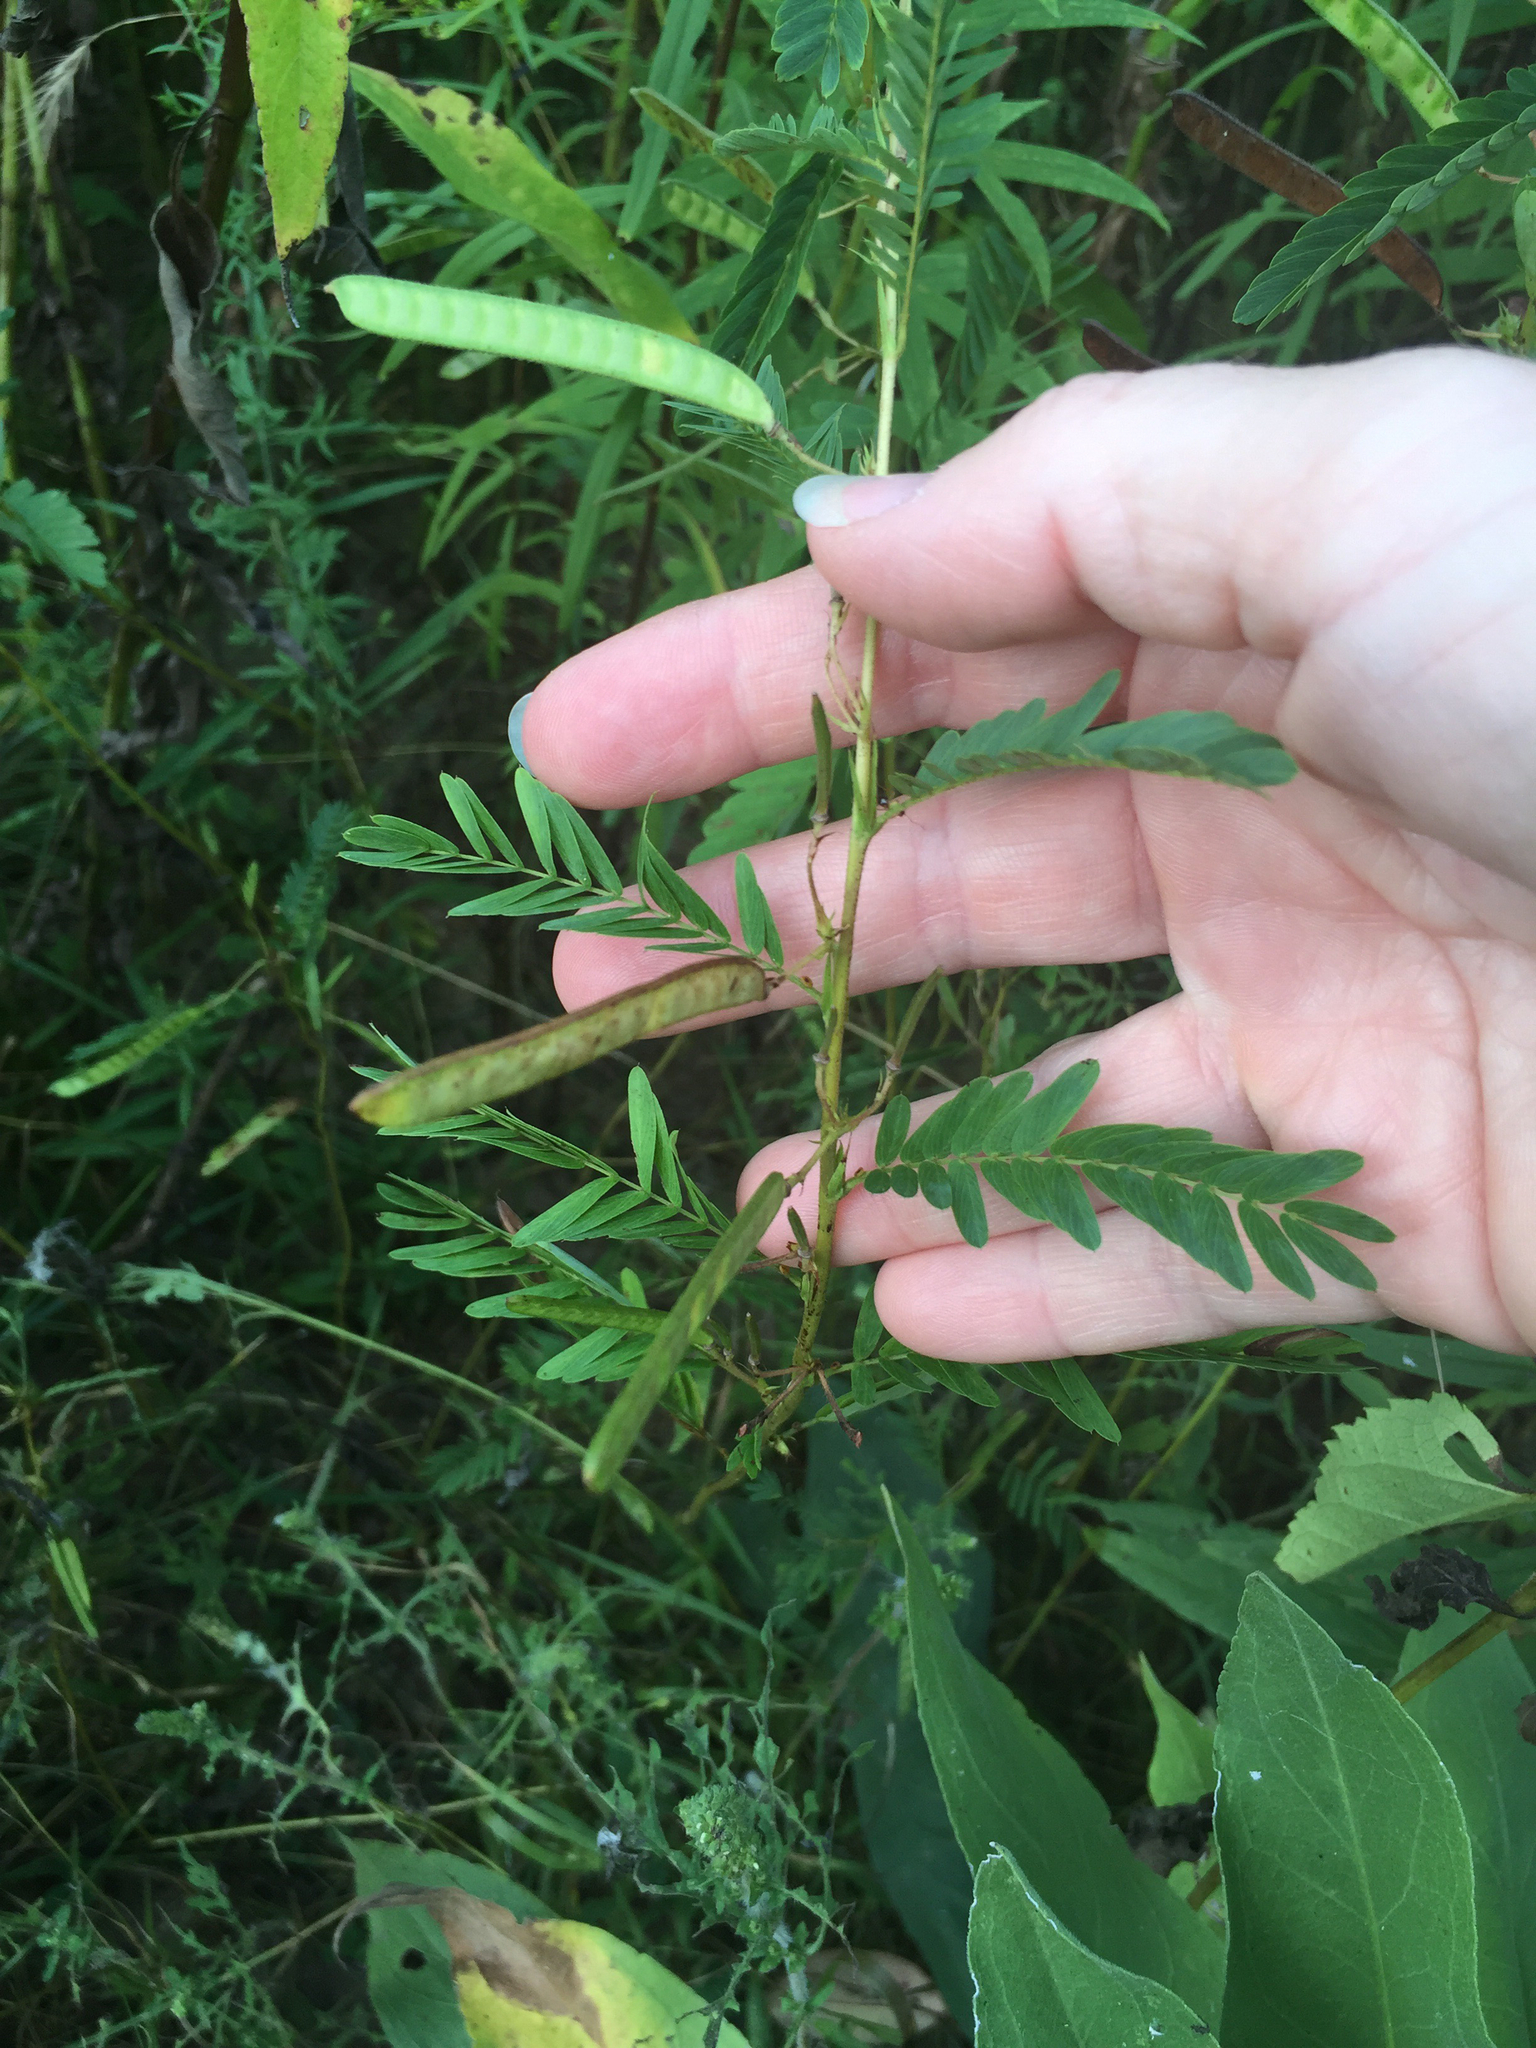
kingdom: Plantae
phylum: Tracheophyta
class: Magnoliopsida
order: Fabales
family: Fabaceae
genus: Chamaecrista
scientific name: Chamaecrista fasciculata
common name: Golden cassia
